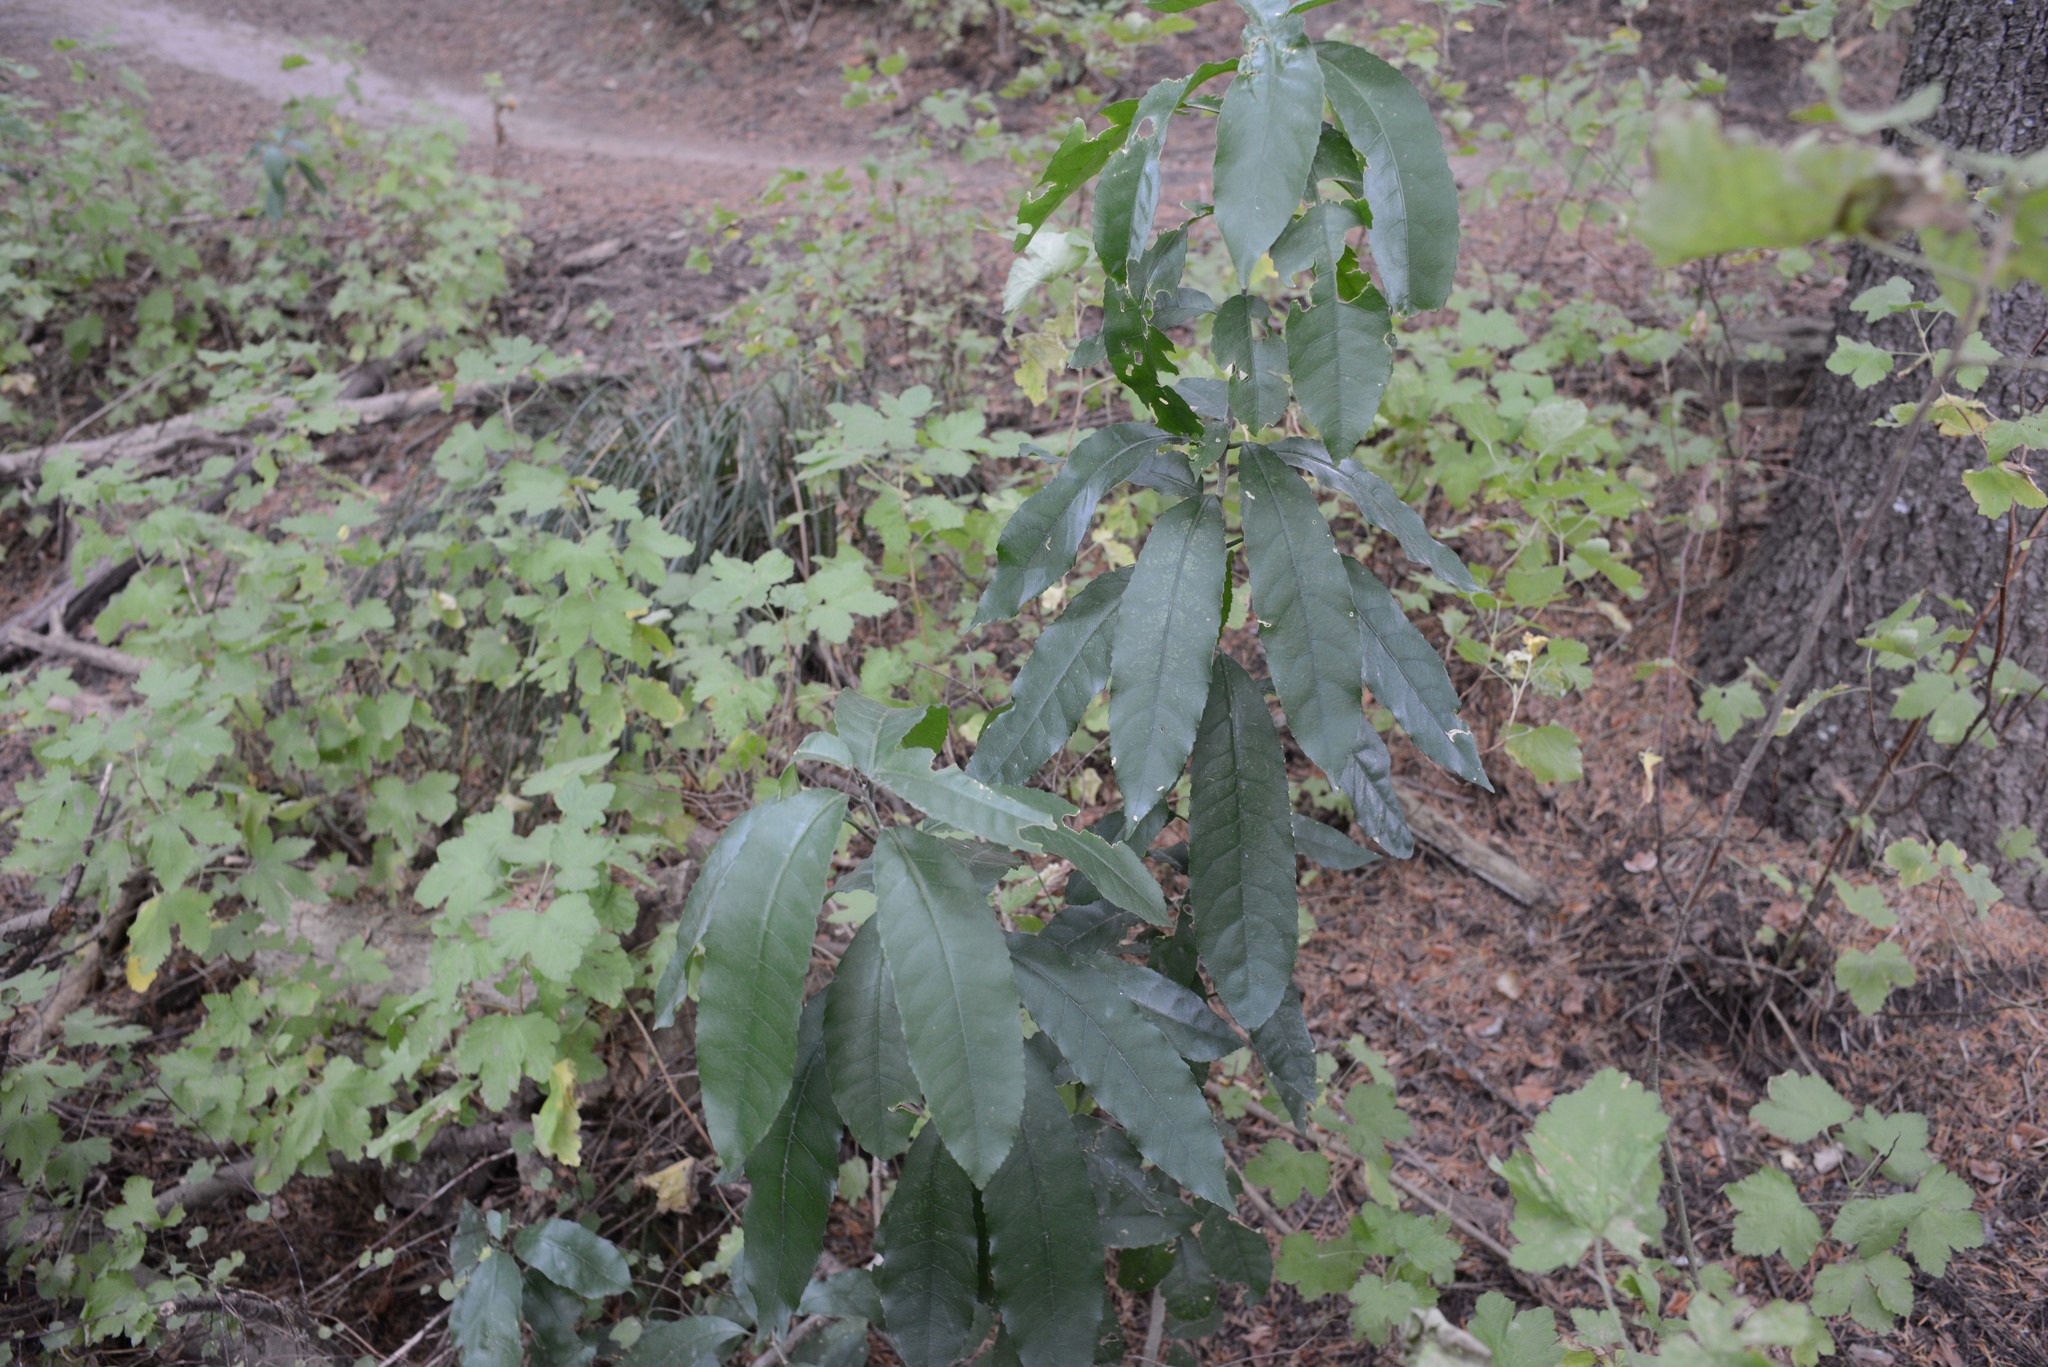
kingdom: Plantae
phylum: Tracheophyta
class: Magnoliopsida
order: Malpighiales
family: Violaceae
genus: Melicytus
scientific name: Melicytus ramiflorus
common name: Mahoe
